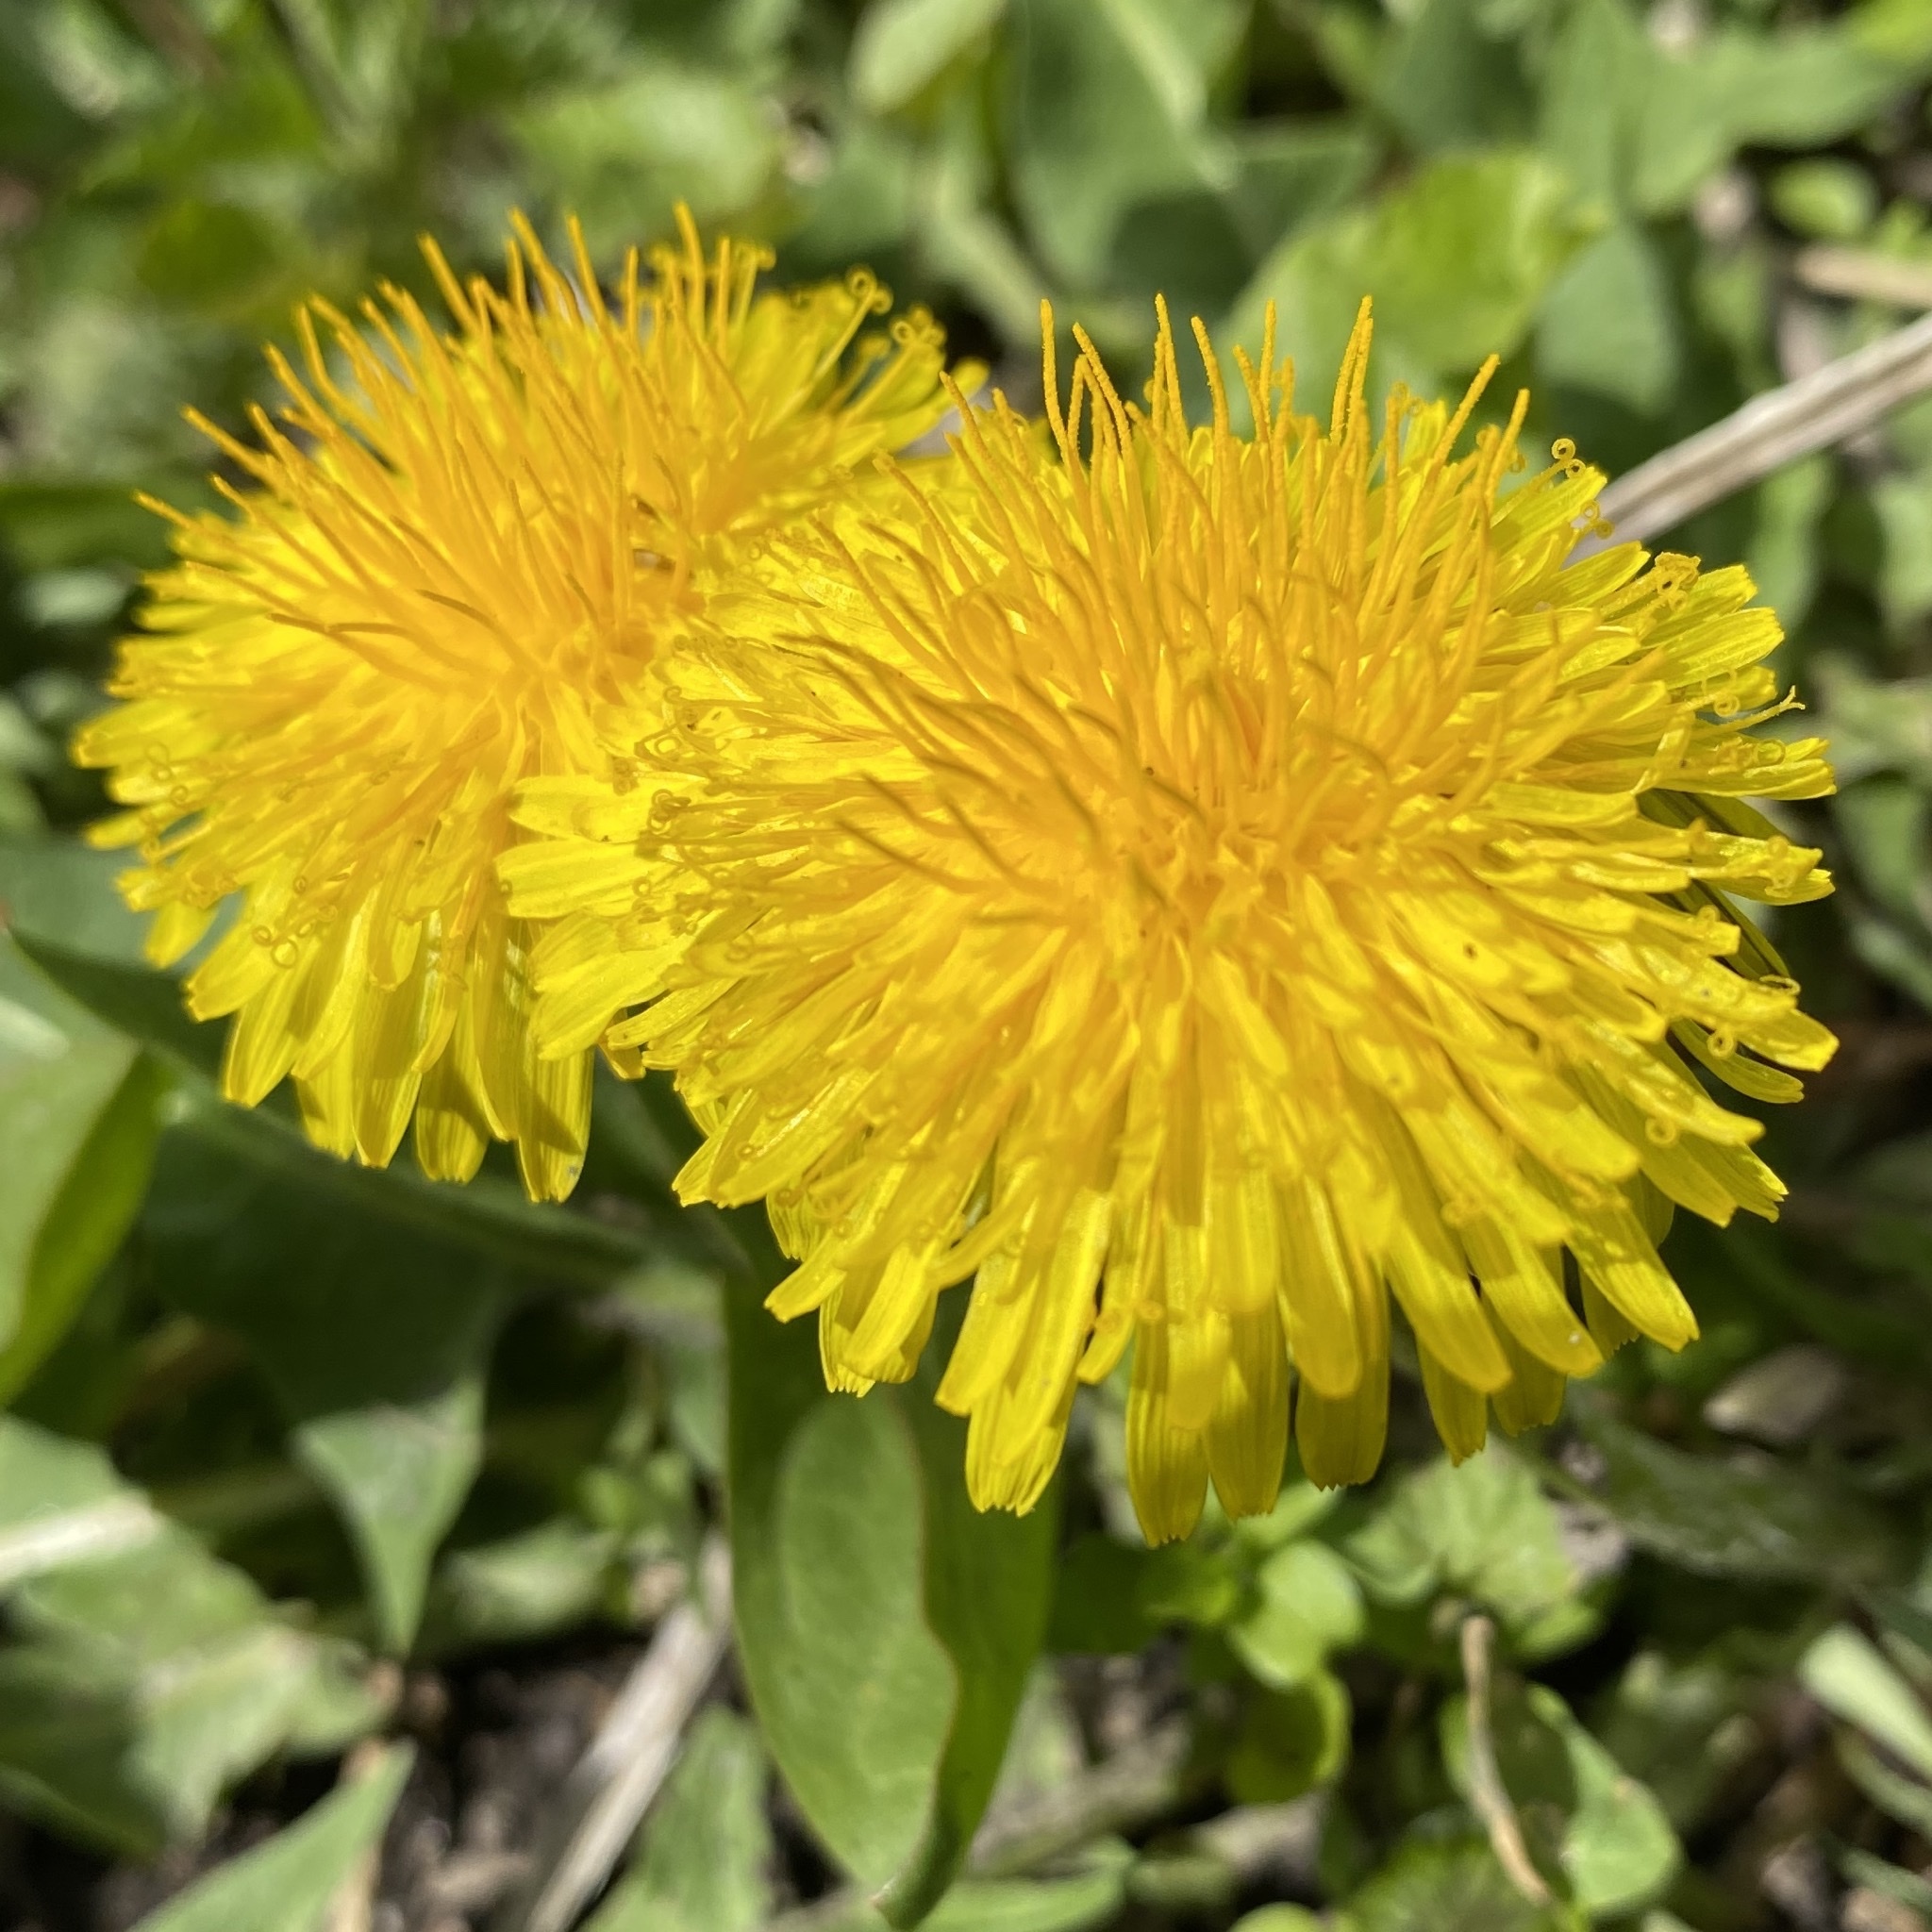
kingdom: Plantae
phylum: Tracheophyta
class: Magnoliopsida
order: Asterales
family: Asteraceae
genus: Taraxacum
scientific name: Taraxacum officinale
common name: Common dandelion
